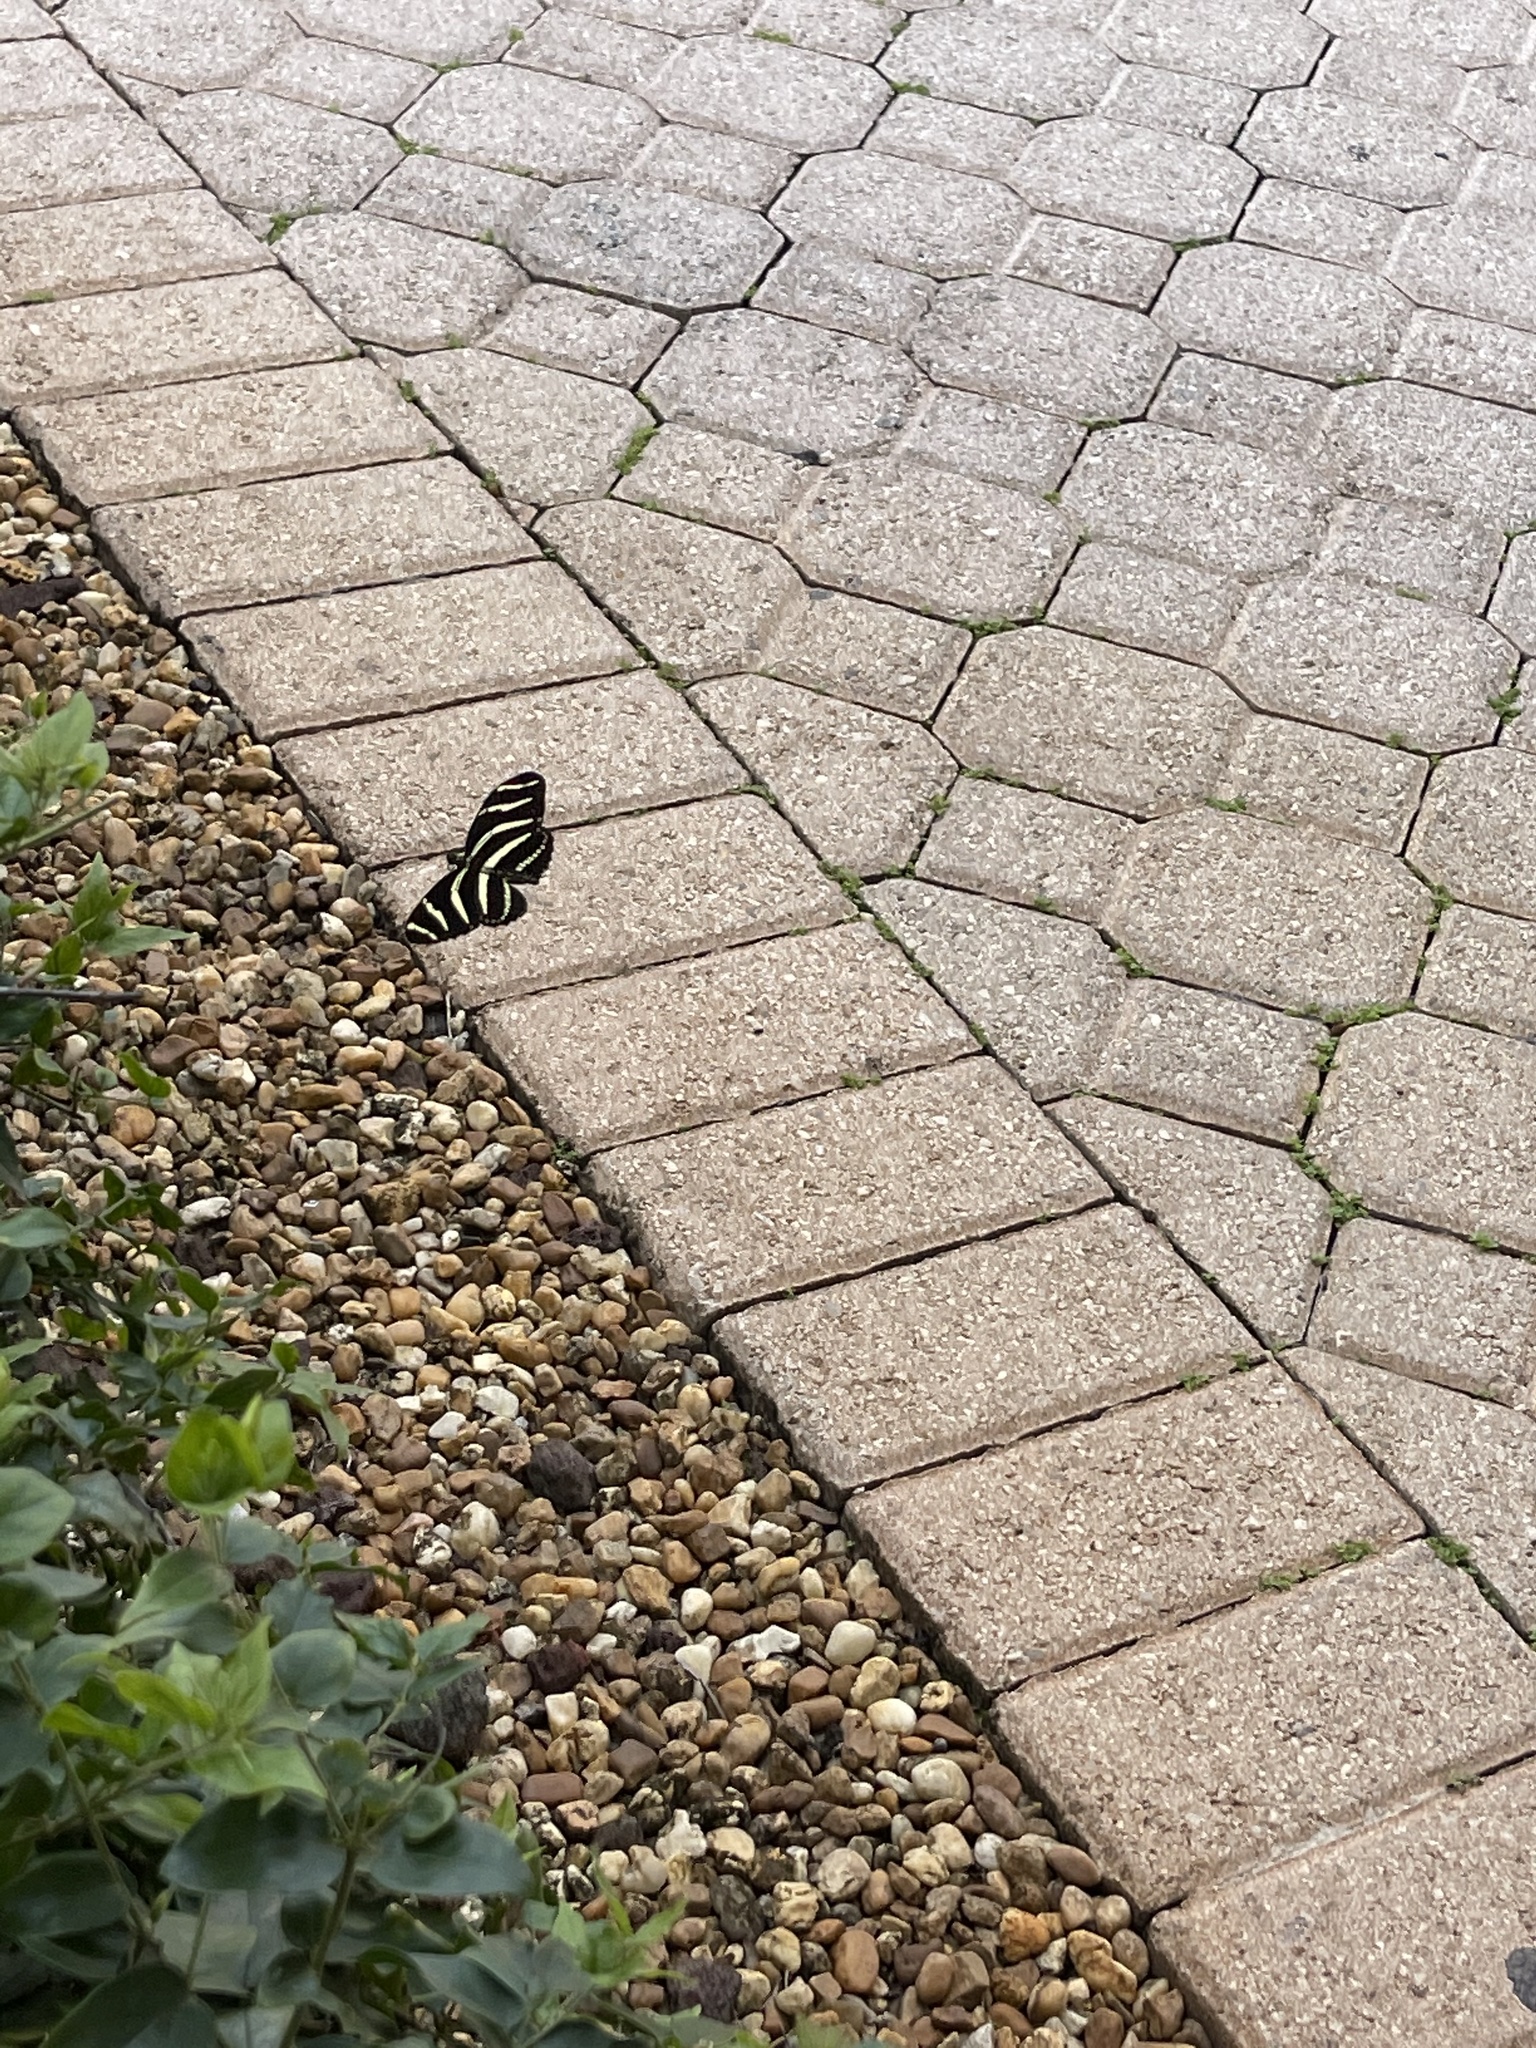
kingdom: Animalia
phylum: Arthropoda
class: Insecta
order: Lepidoptera
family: Nymphalidae
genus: Heliconius
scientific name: Heliconius charithonia
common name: Zebra long wing
